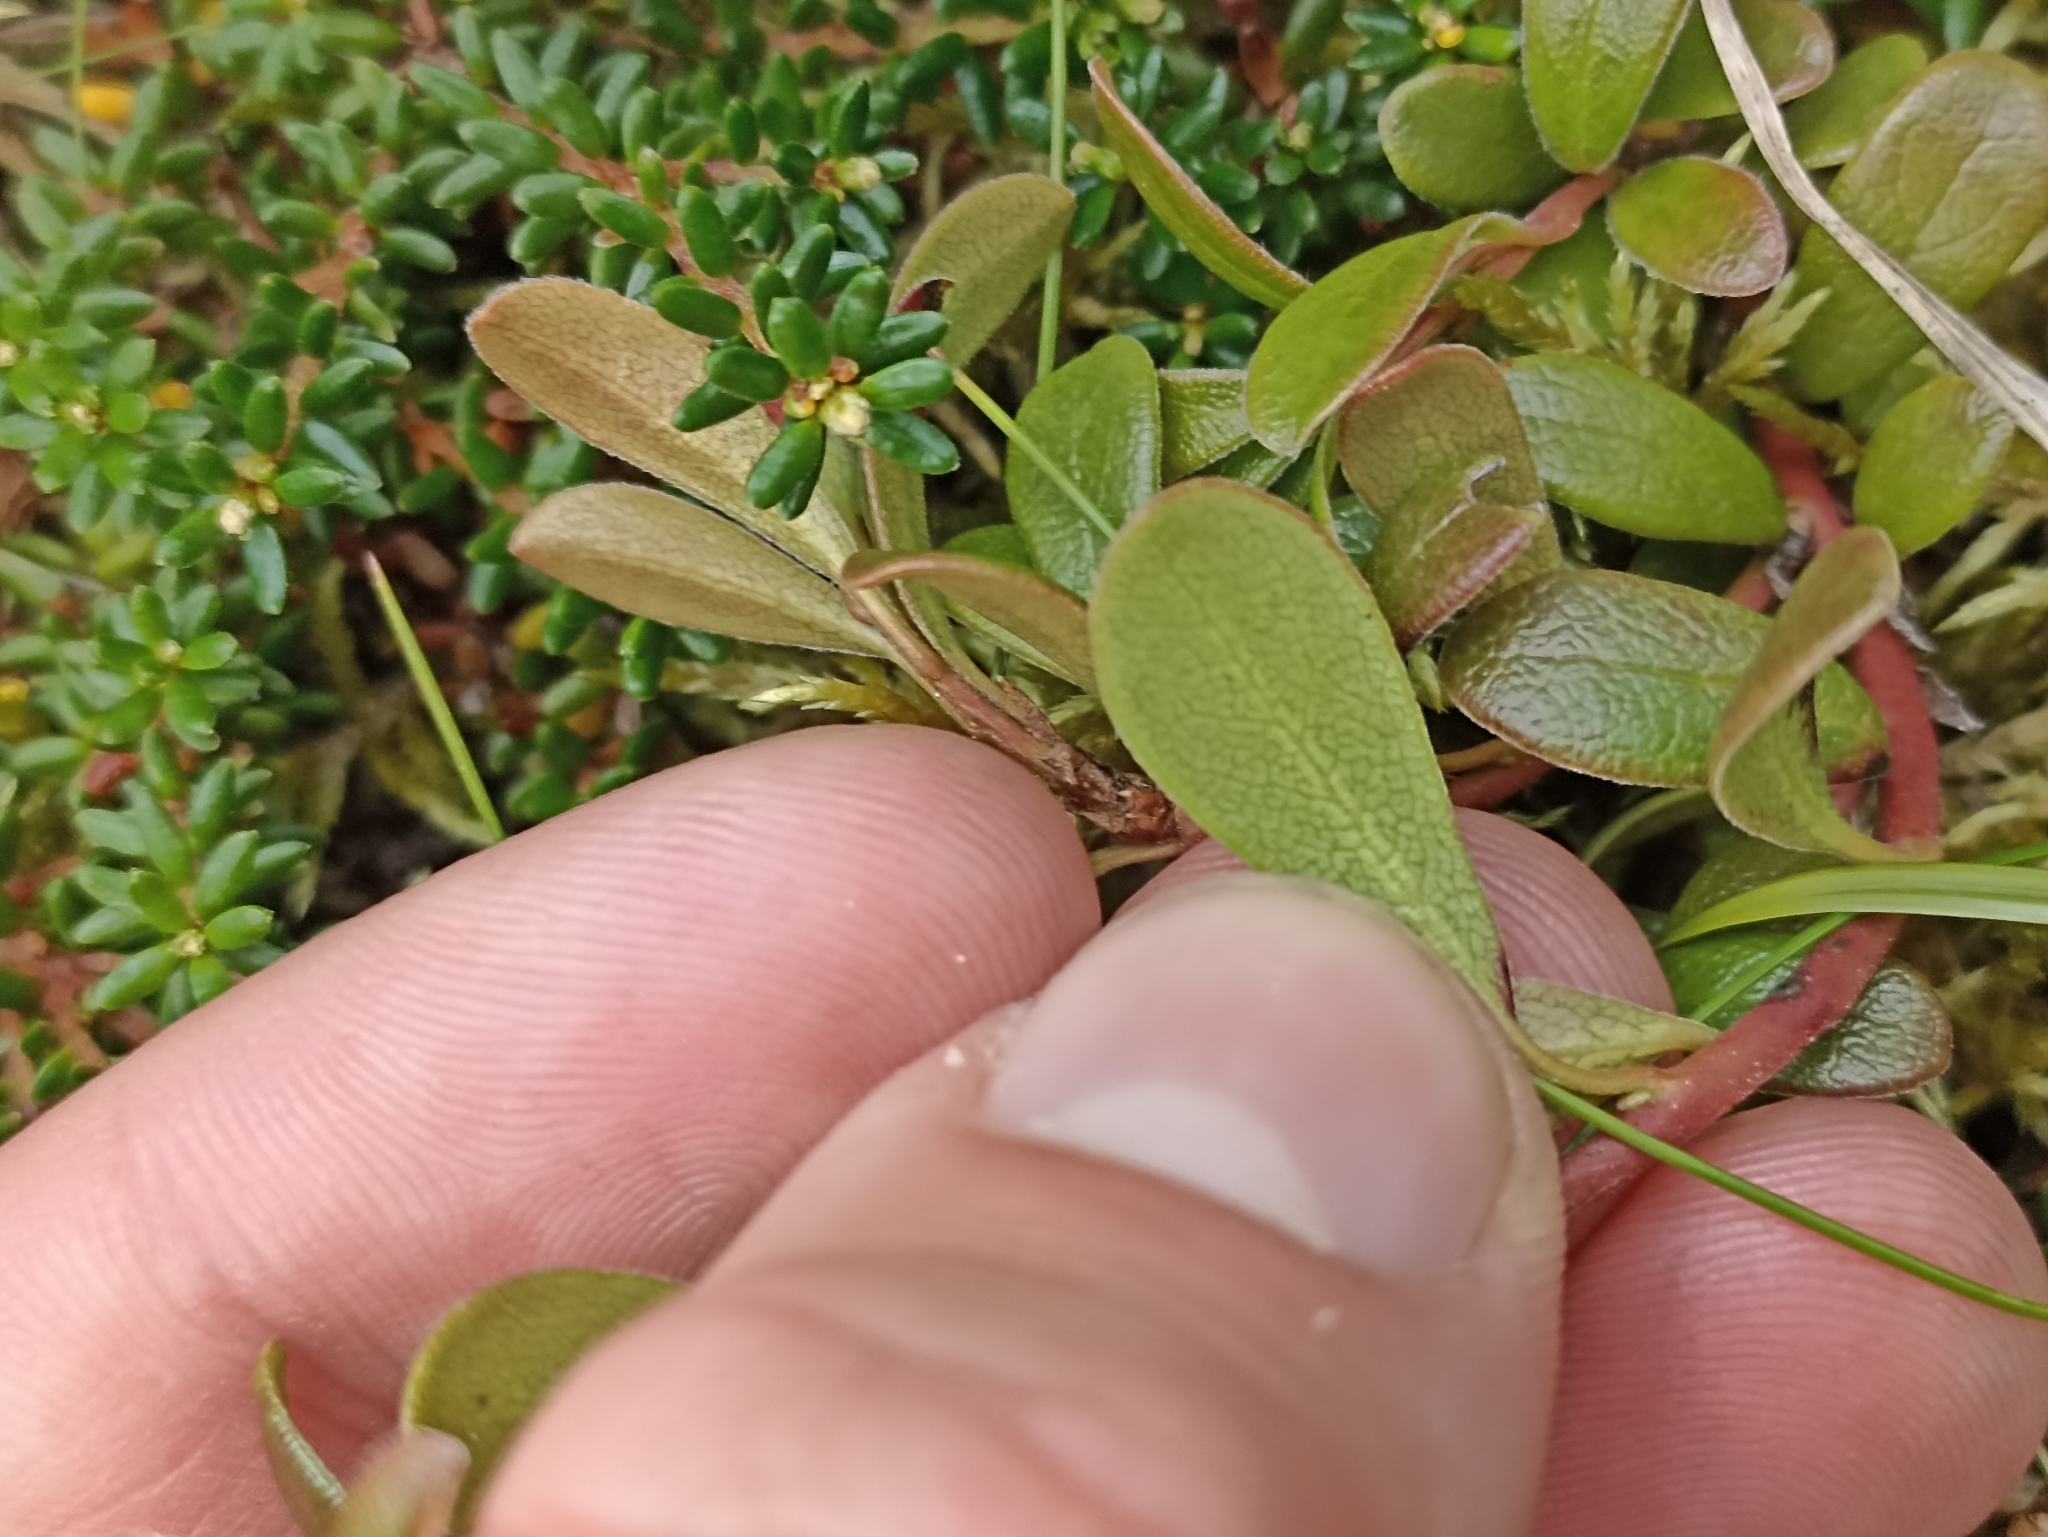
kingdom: Plantae
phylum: Tracheophyta
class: Magnoliopsida
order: Ericales
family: Ericaceae
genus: Arctostaphylos
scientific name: Arctostaphylos uva-ursi
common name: Bearberry
